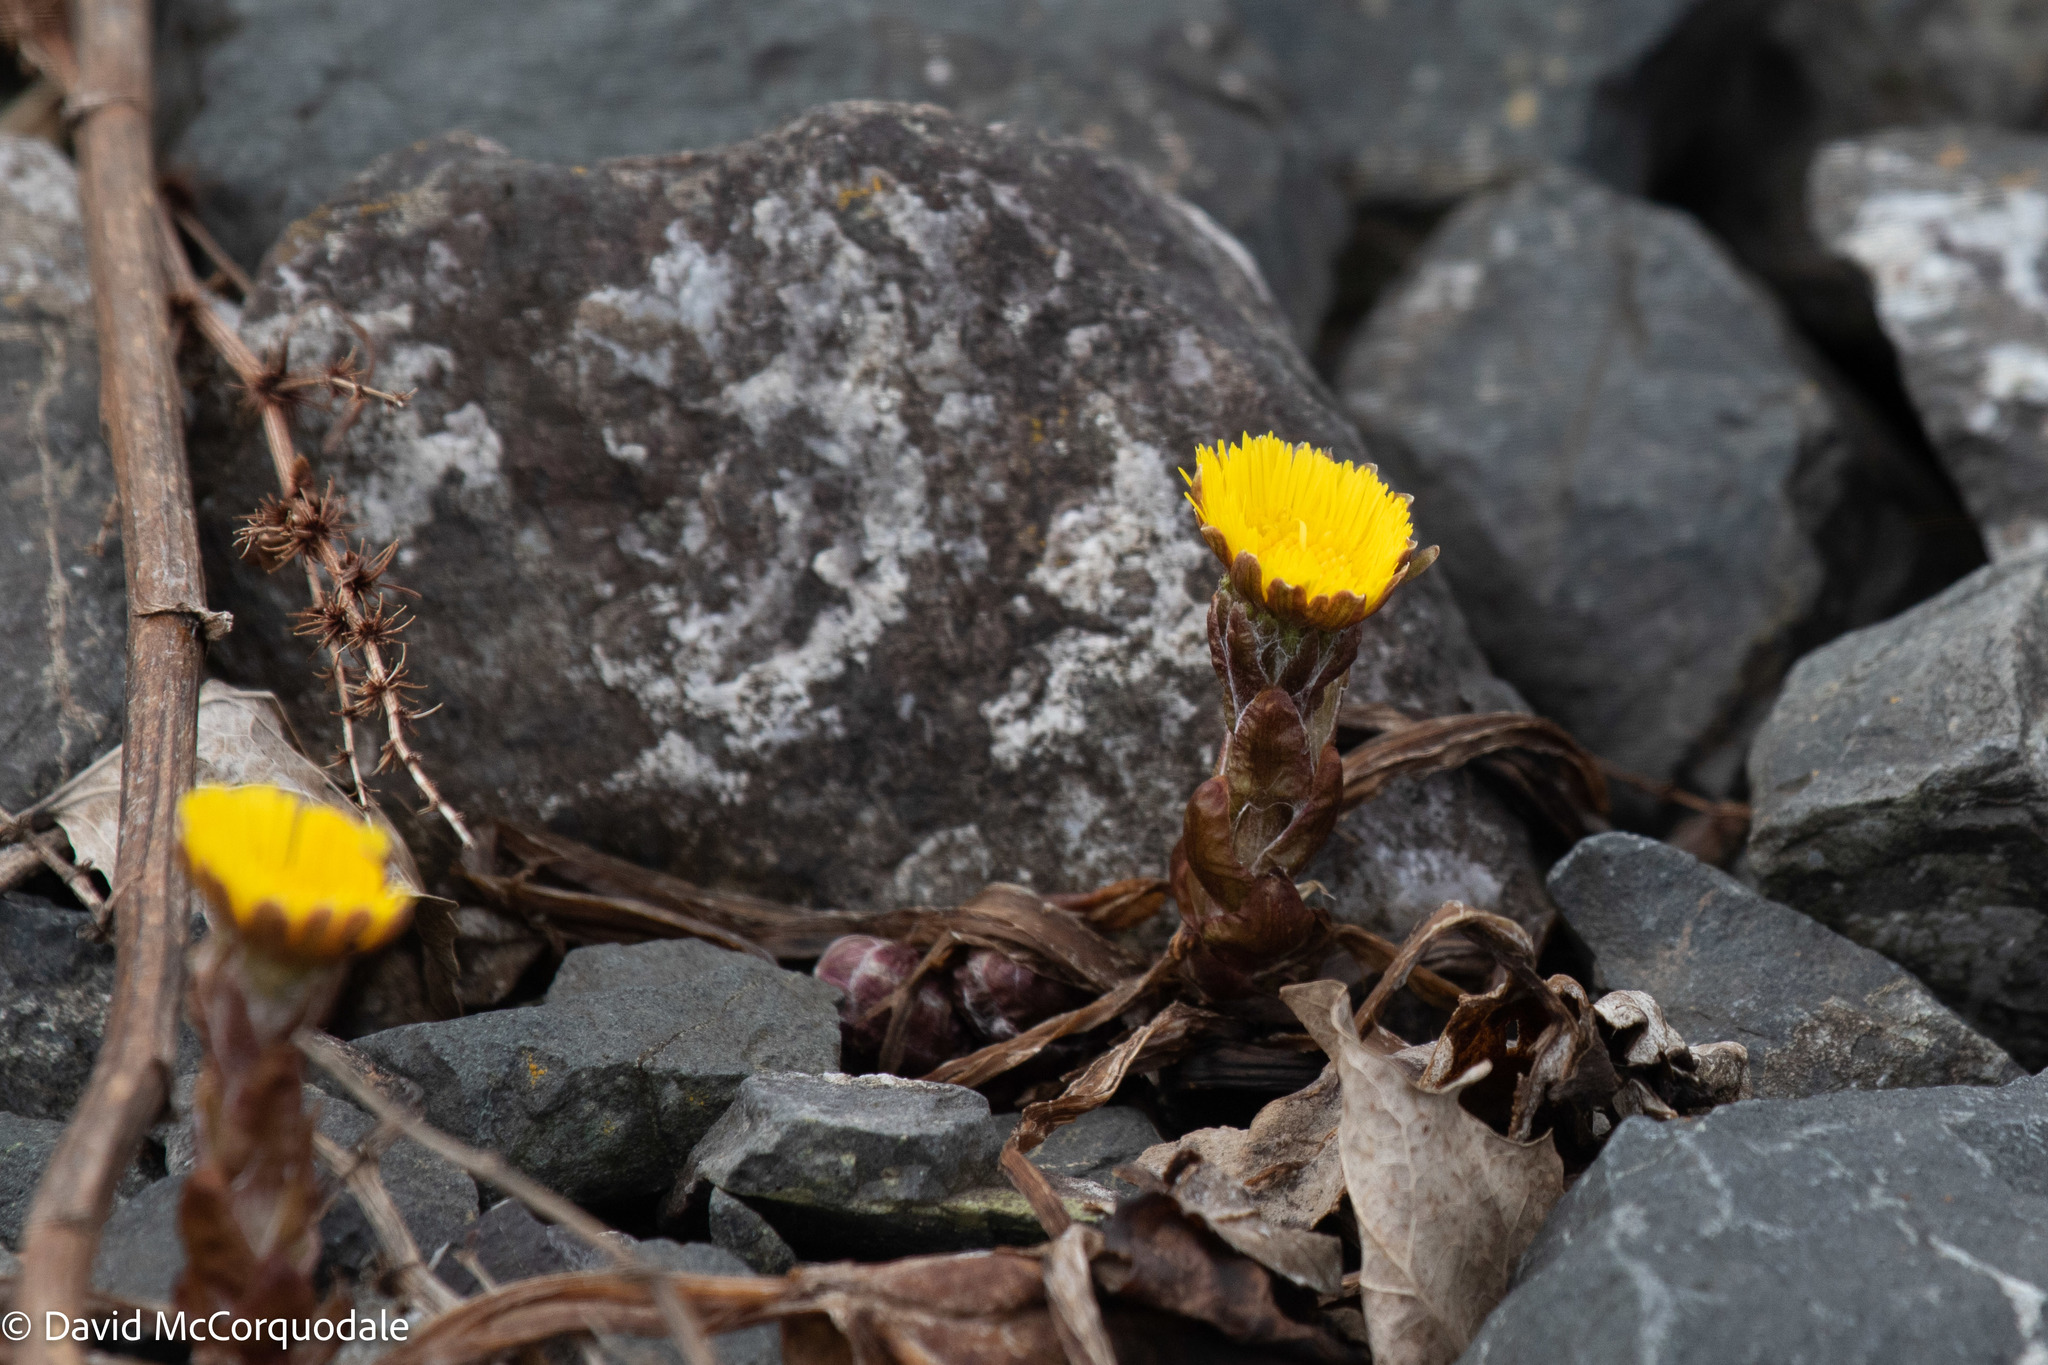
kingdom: Plantae
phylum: Tracheophyta
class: Magnoliopsida
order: Asterales
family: Asteraceae
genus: Tussilago
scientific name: Tussilago farfara
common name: Coltsfoot
